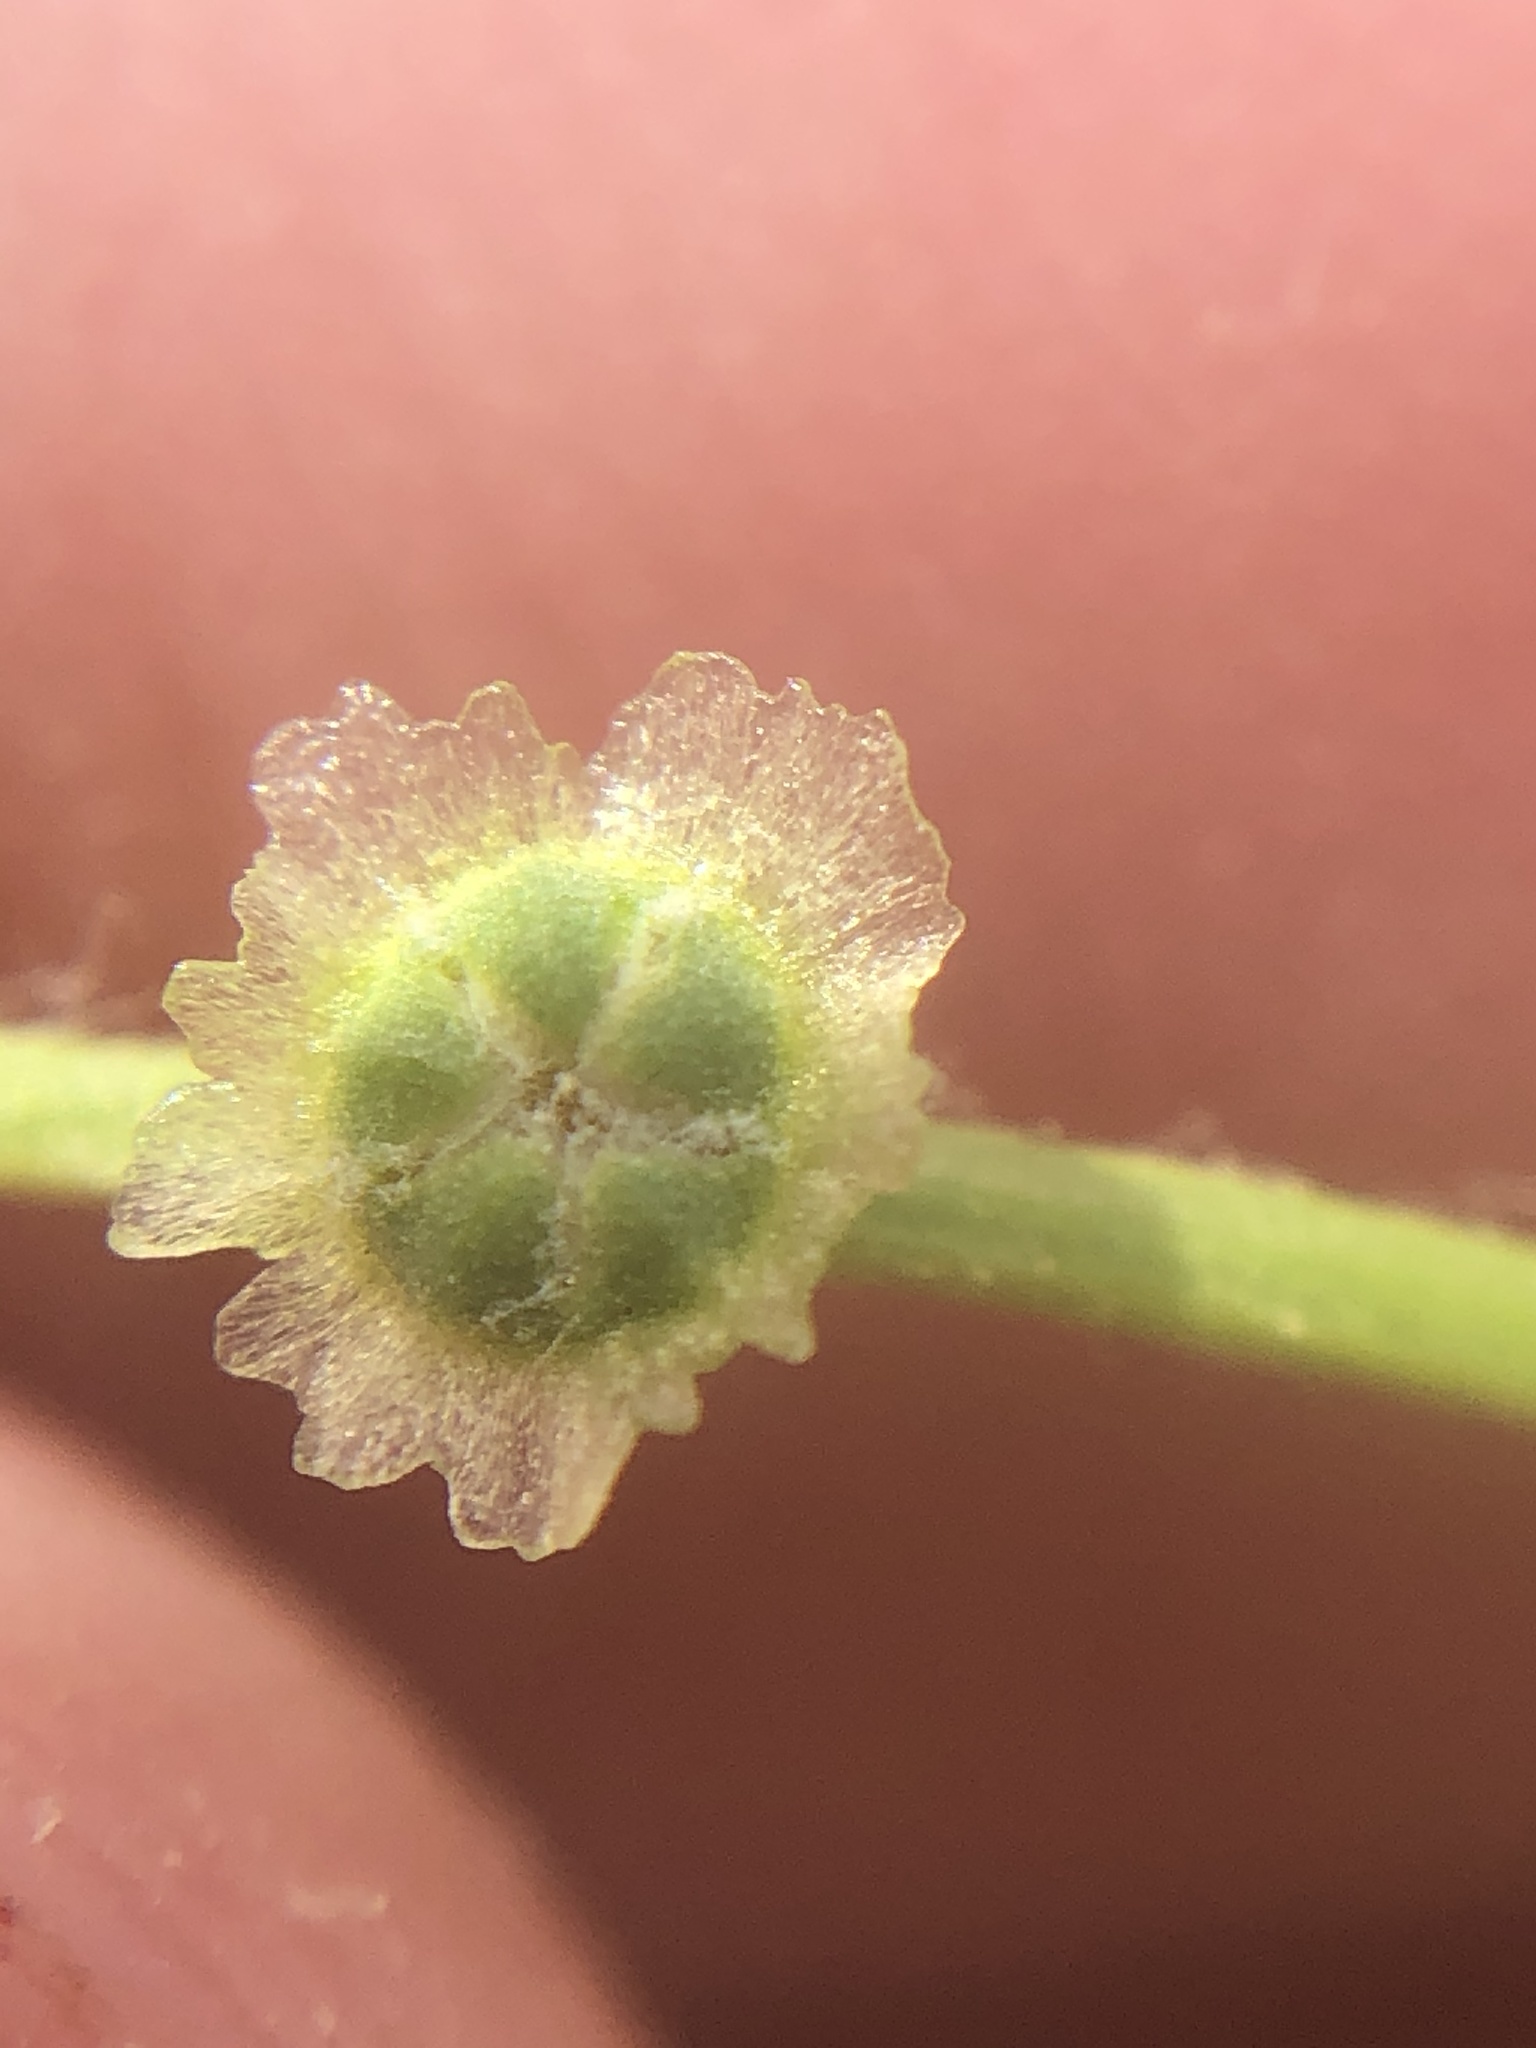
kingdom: Plantae
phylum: Tracheophyta
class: Magnoliopsida
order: Caryophyllales
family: Amaranthaceae
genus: Dysphania
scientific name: Dysphania atriplicifolia
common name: Plains tumbleweed
